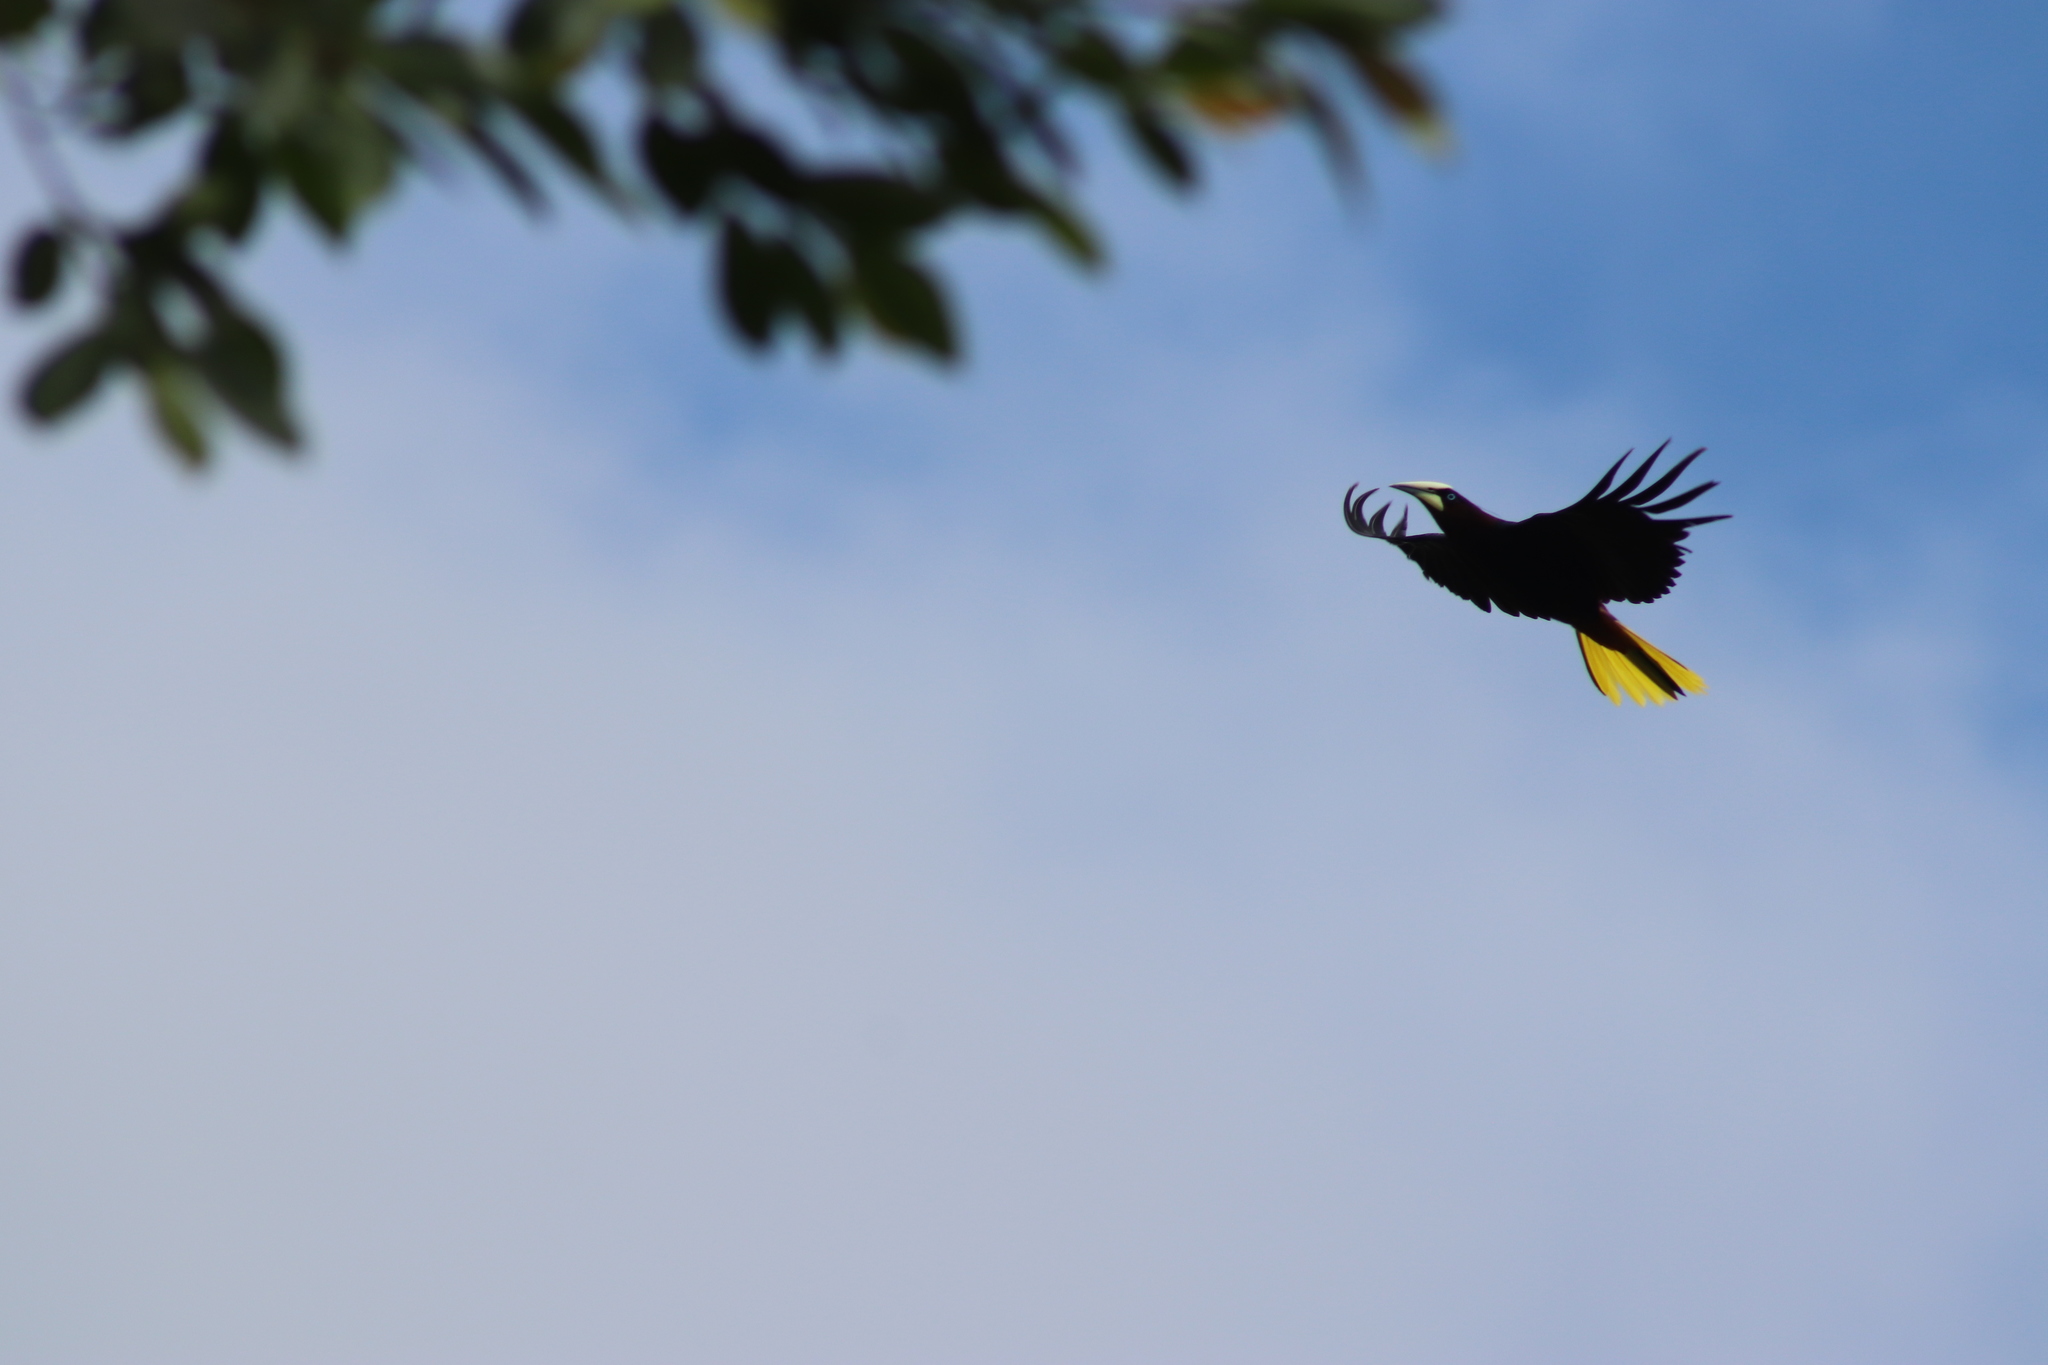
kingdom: Animalia
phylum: Chordata
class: Aves
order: Passeriformes
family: Icteridae
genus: Psarocolius
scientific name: Psarocolius wagleri
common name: Chestnut-headed oropendola
